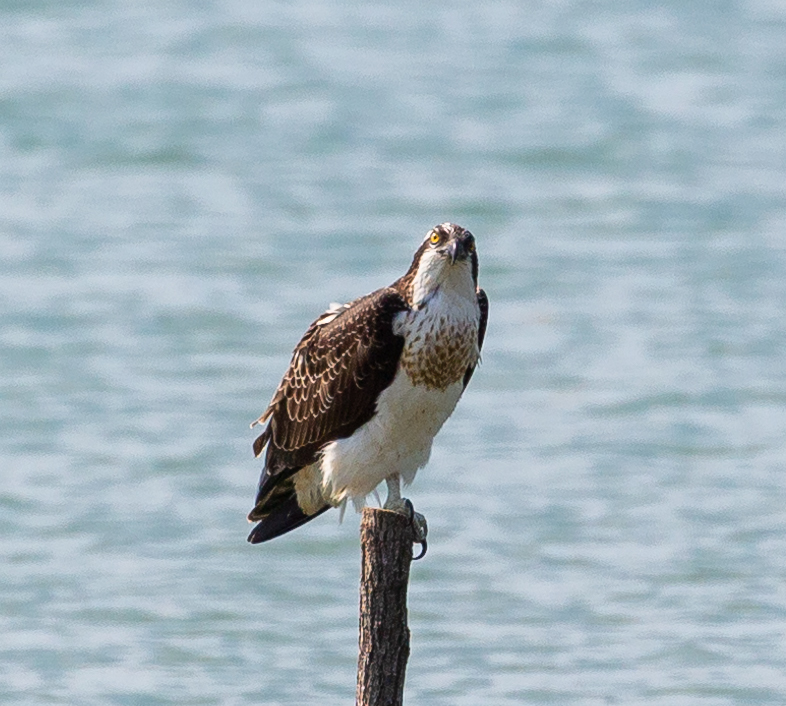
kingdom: Animalia
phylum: Chordata
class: Aves
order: Accipitriformes
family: Pandionidae
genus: Pandion
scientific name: Pandion haliaetus
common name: Osprey
